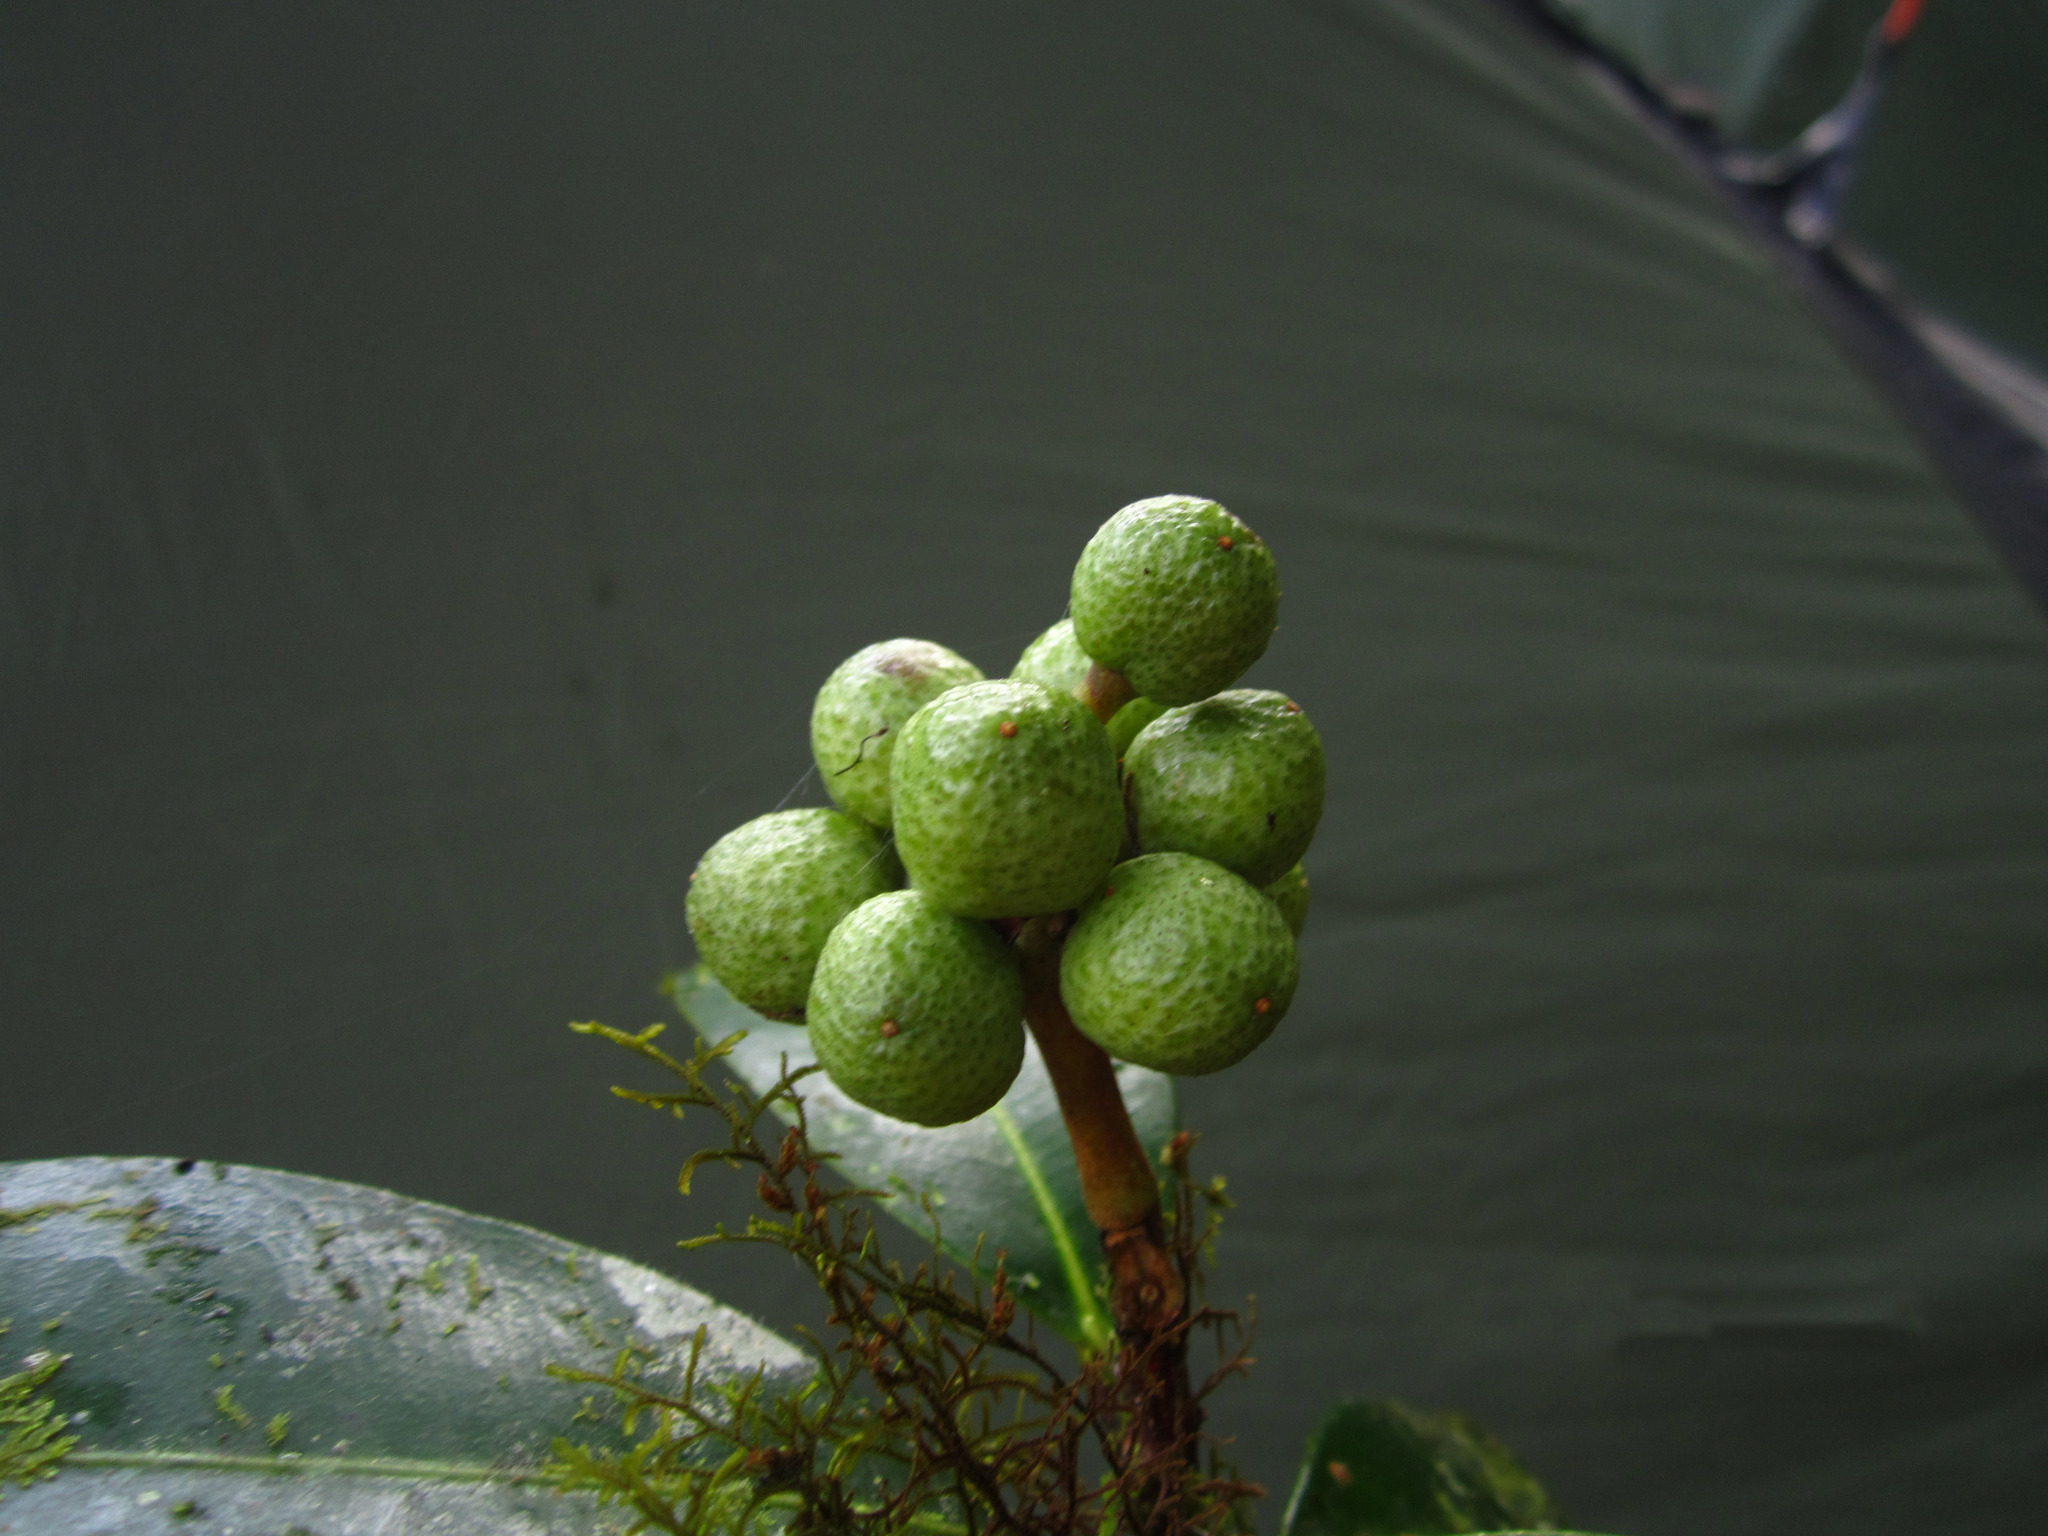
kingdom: Plantae
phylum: Tracheophyta
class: Magnoliopsida
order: Sapindales
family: Rutaceae
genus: Vepris
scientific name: Vepris nitida
